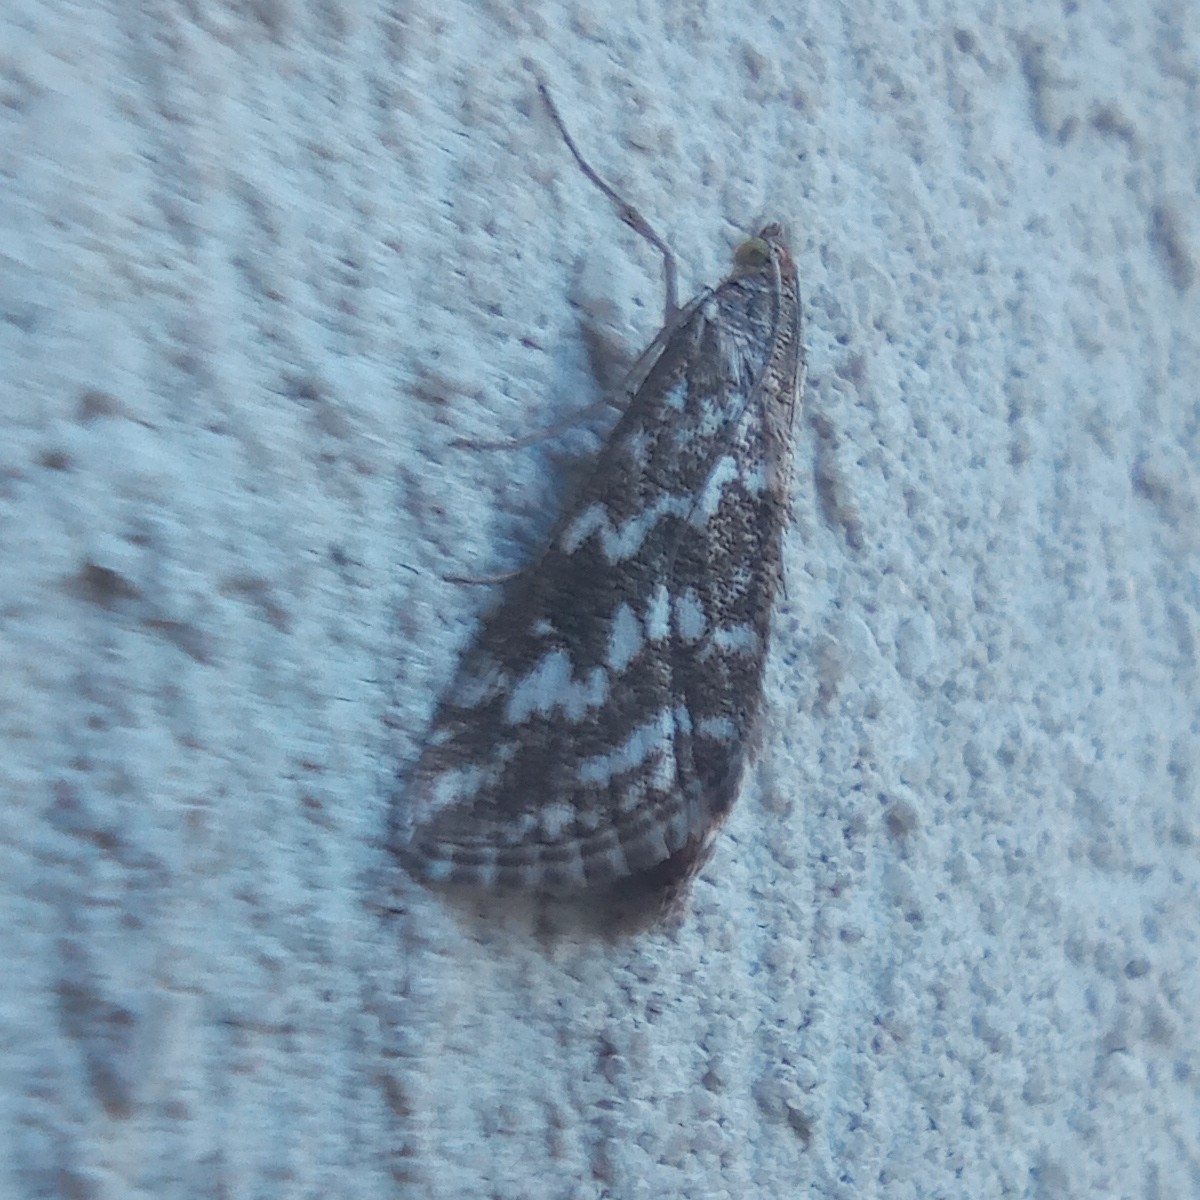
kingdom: Animalia
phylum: Arthropoda
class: Insecta
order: Lepidoptera
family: Crambidae
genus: Evergestis
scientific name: Evergestis frumentalis
